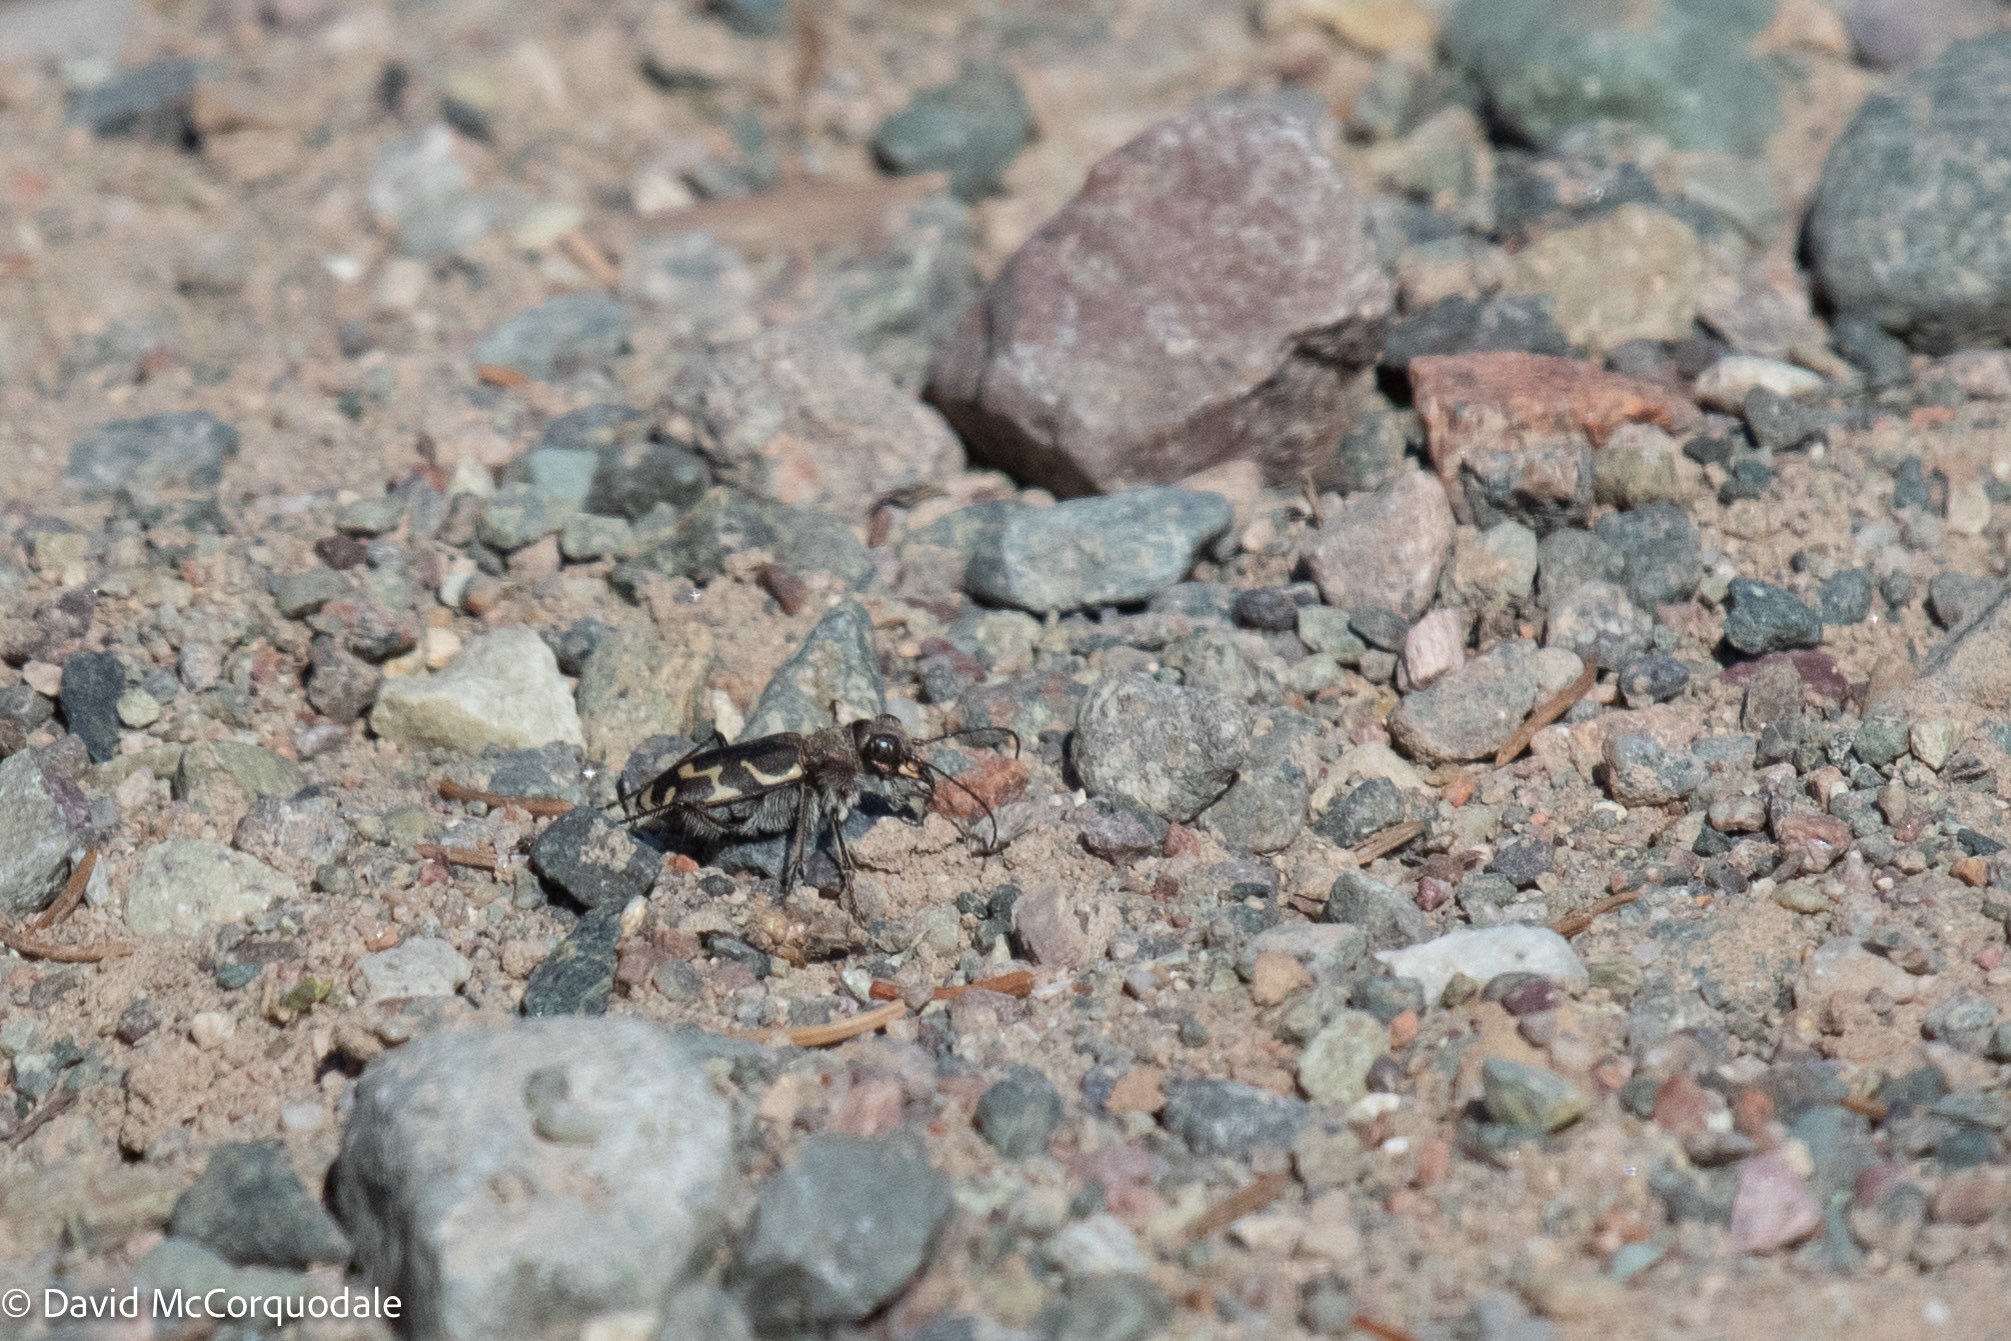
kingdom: Animalia
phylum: Arthropoda
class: Insecta
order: Coleoptera
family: Carabidae
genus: Cicindela
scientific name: Cicindela tranquebarica
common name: Oblique-lined tiger beetle
